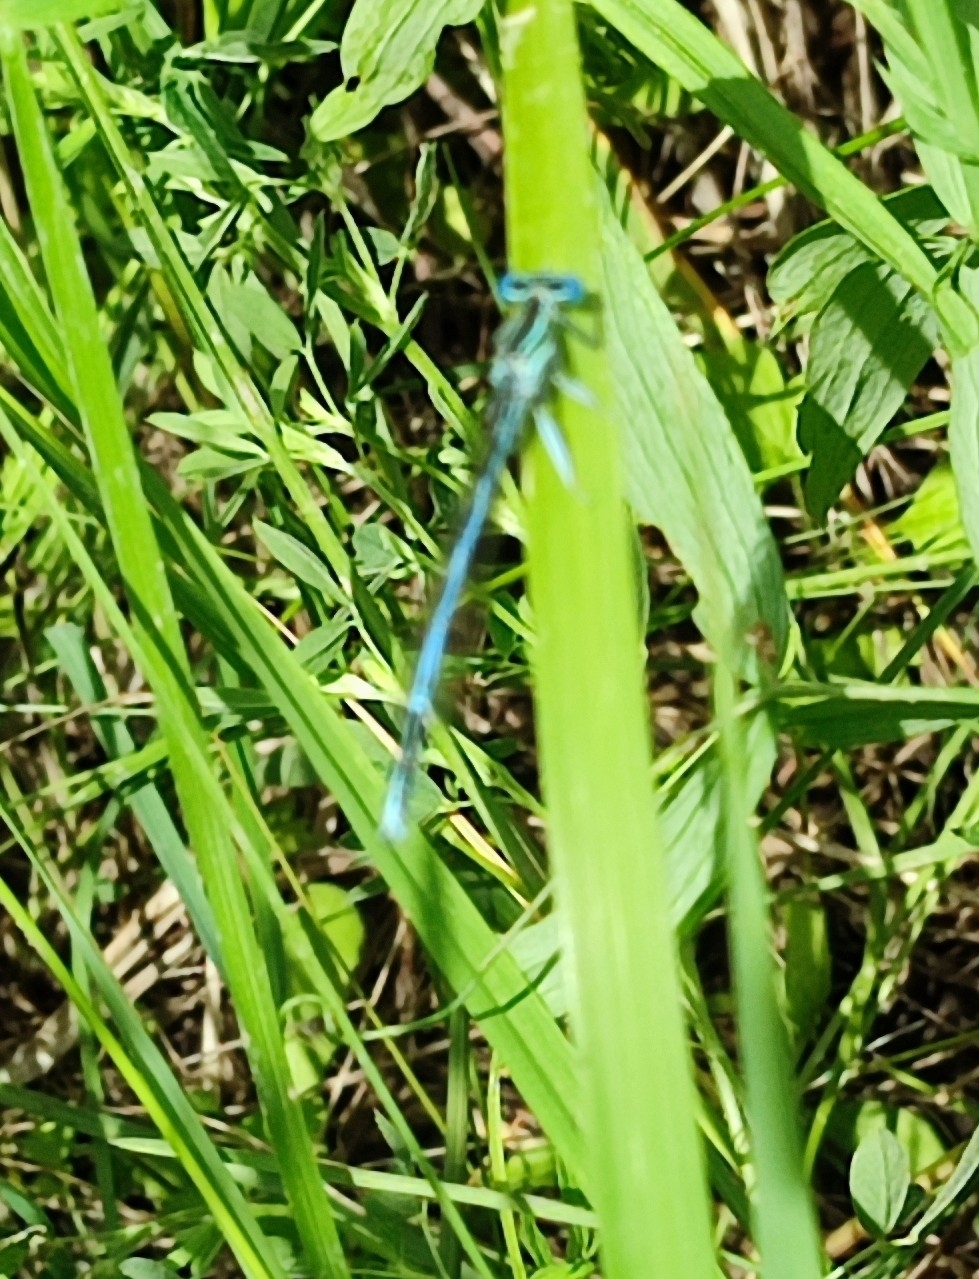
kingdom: Animalia
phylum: Arthropoda
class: Insecta
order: Odonata
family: Platycnemididae
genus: Platycnemis
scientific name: Platycnemis pennipes
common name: White-legged damselfly
